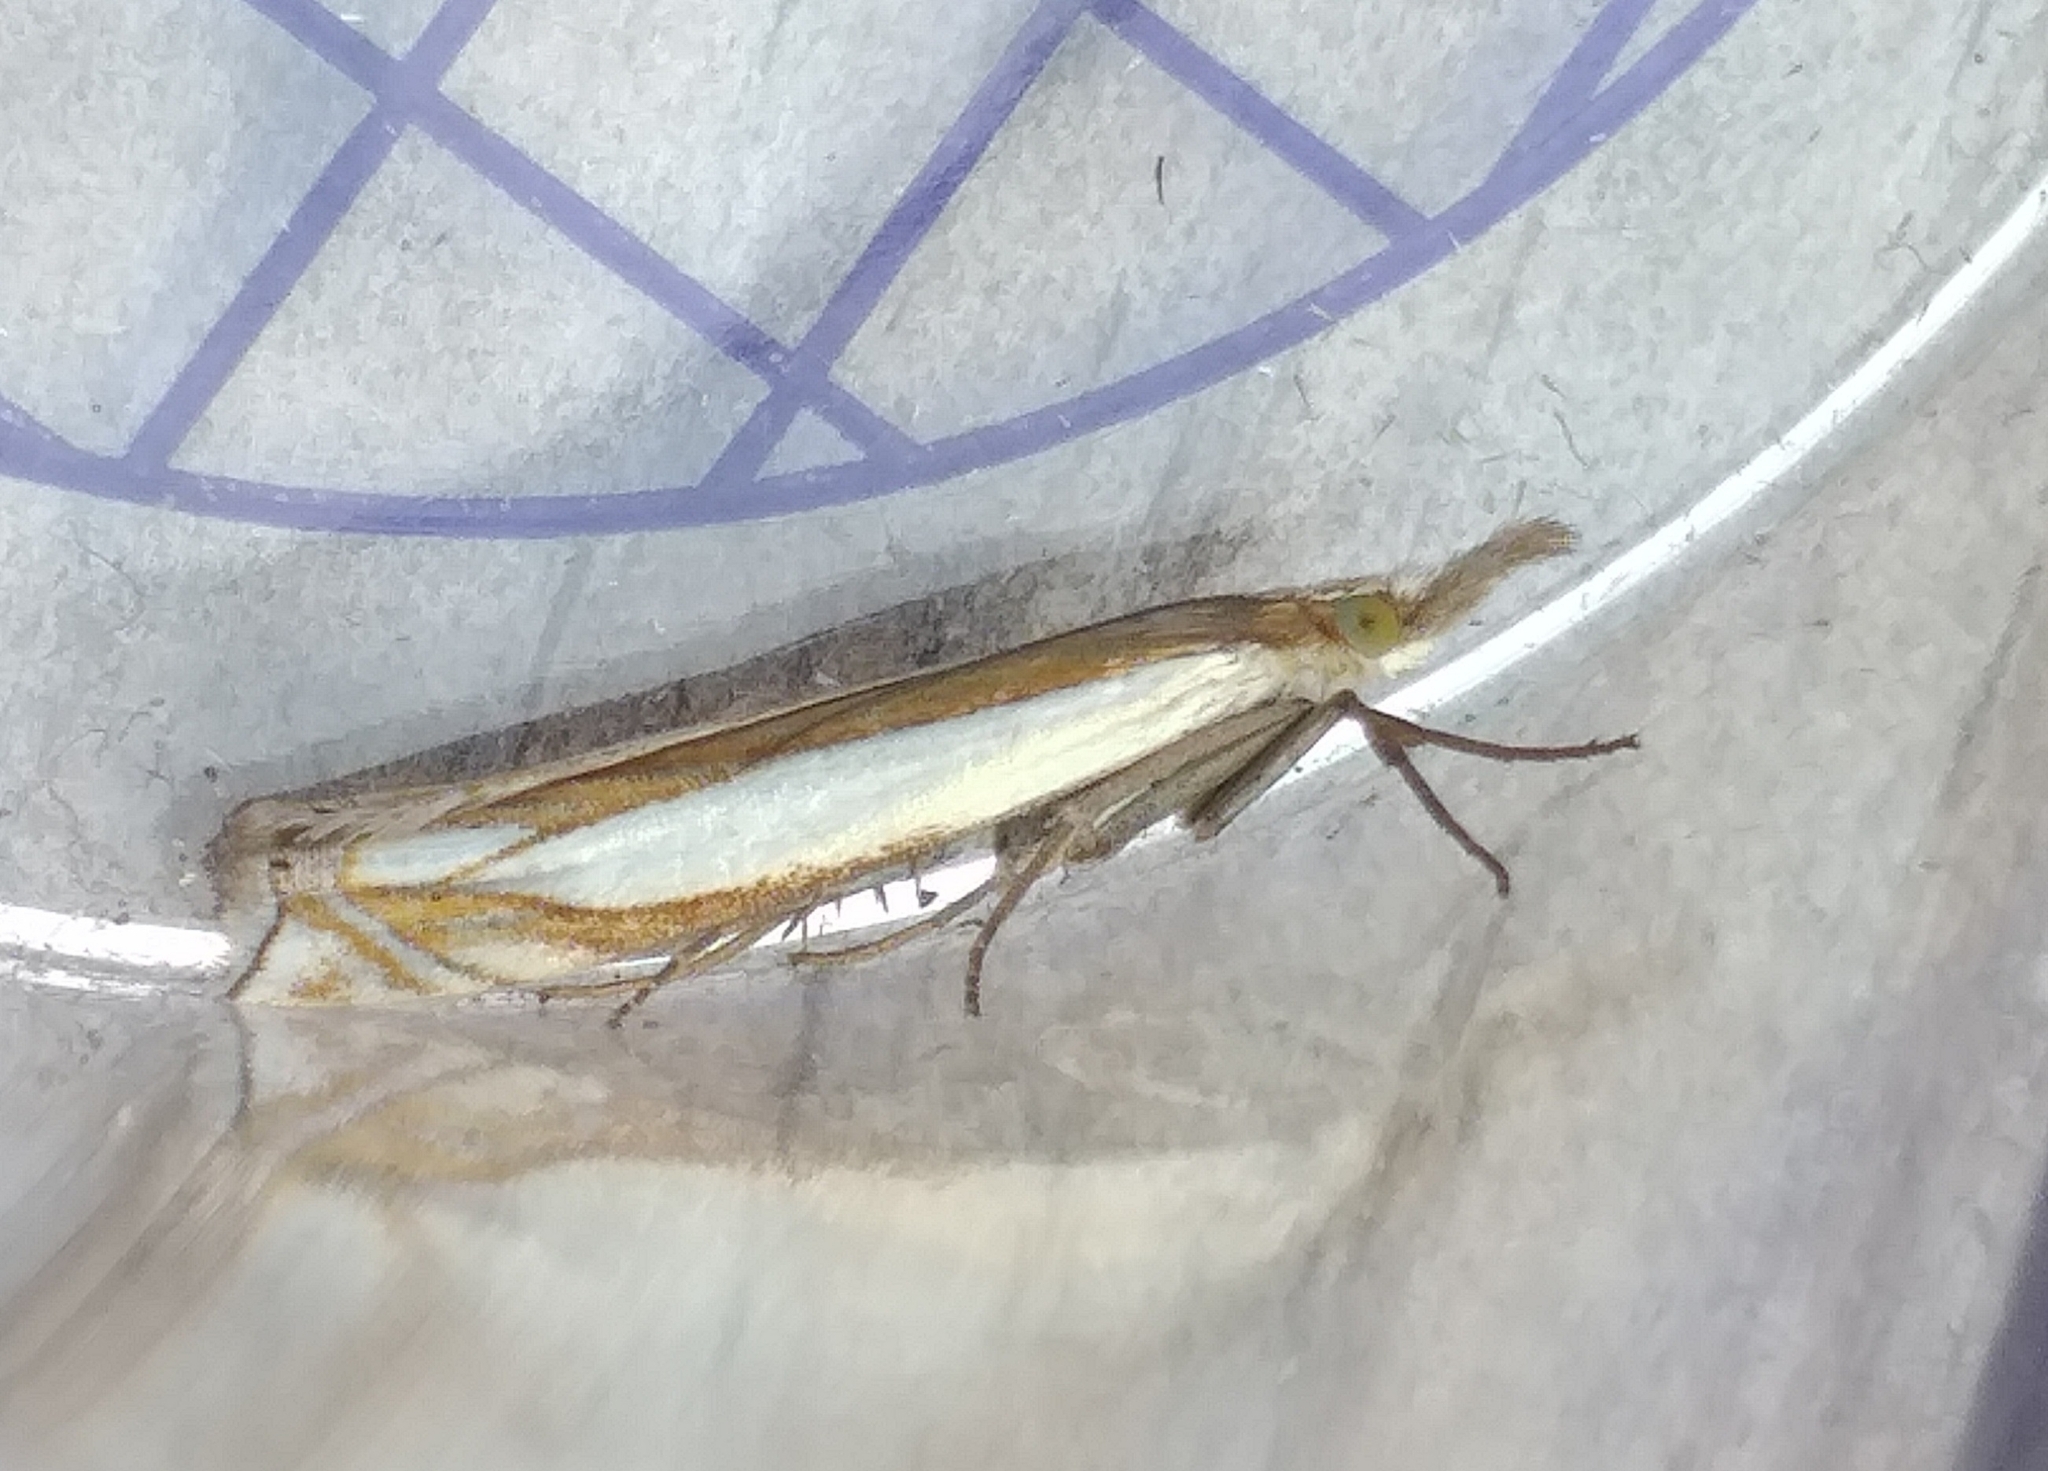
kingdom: Animalia
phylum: Arthropoda
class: Insecta
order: Lepidoptera
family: Crambidae
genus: Crambus
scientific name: Crambus pascuella
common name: Inlaid grass-veneer
